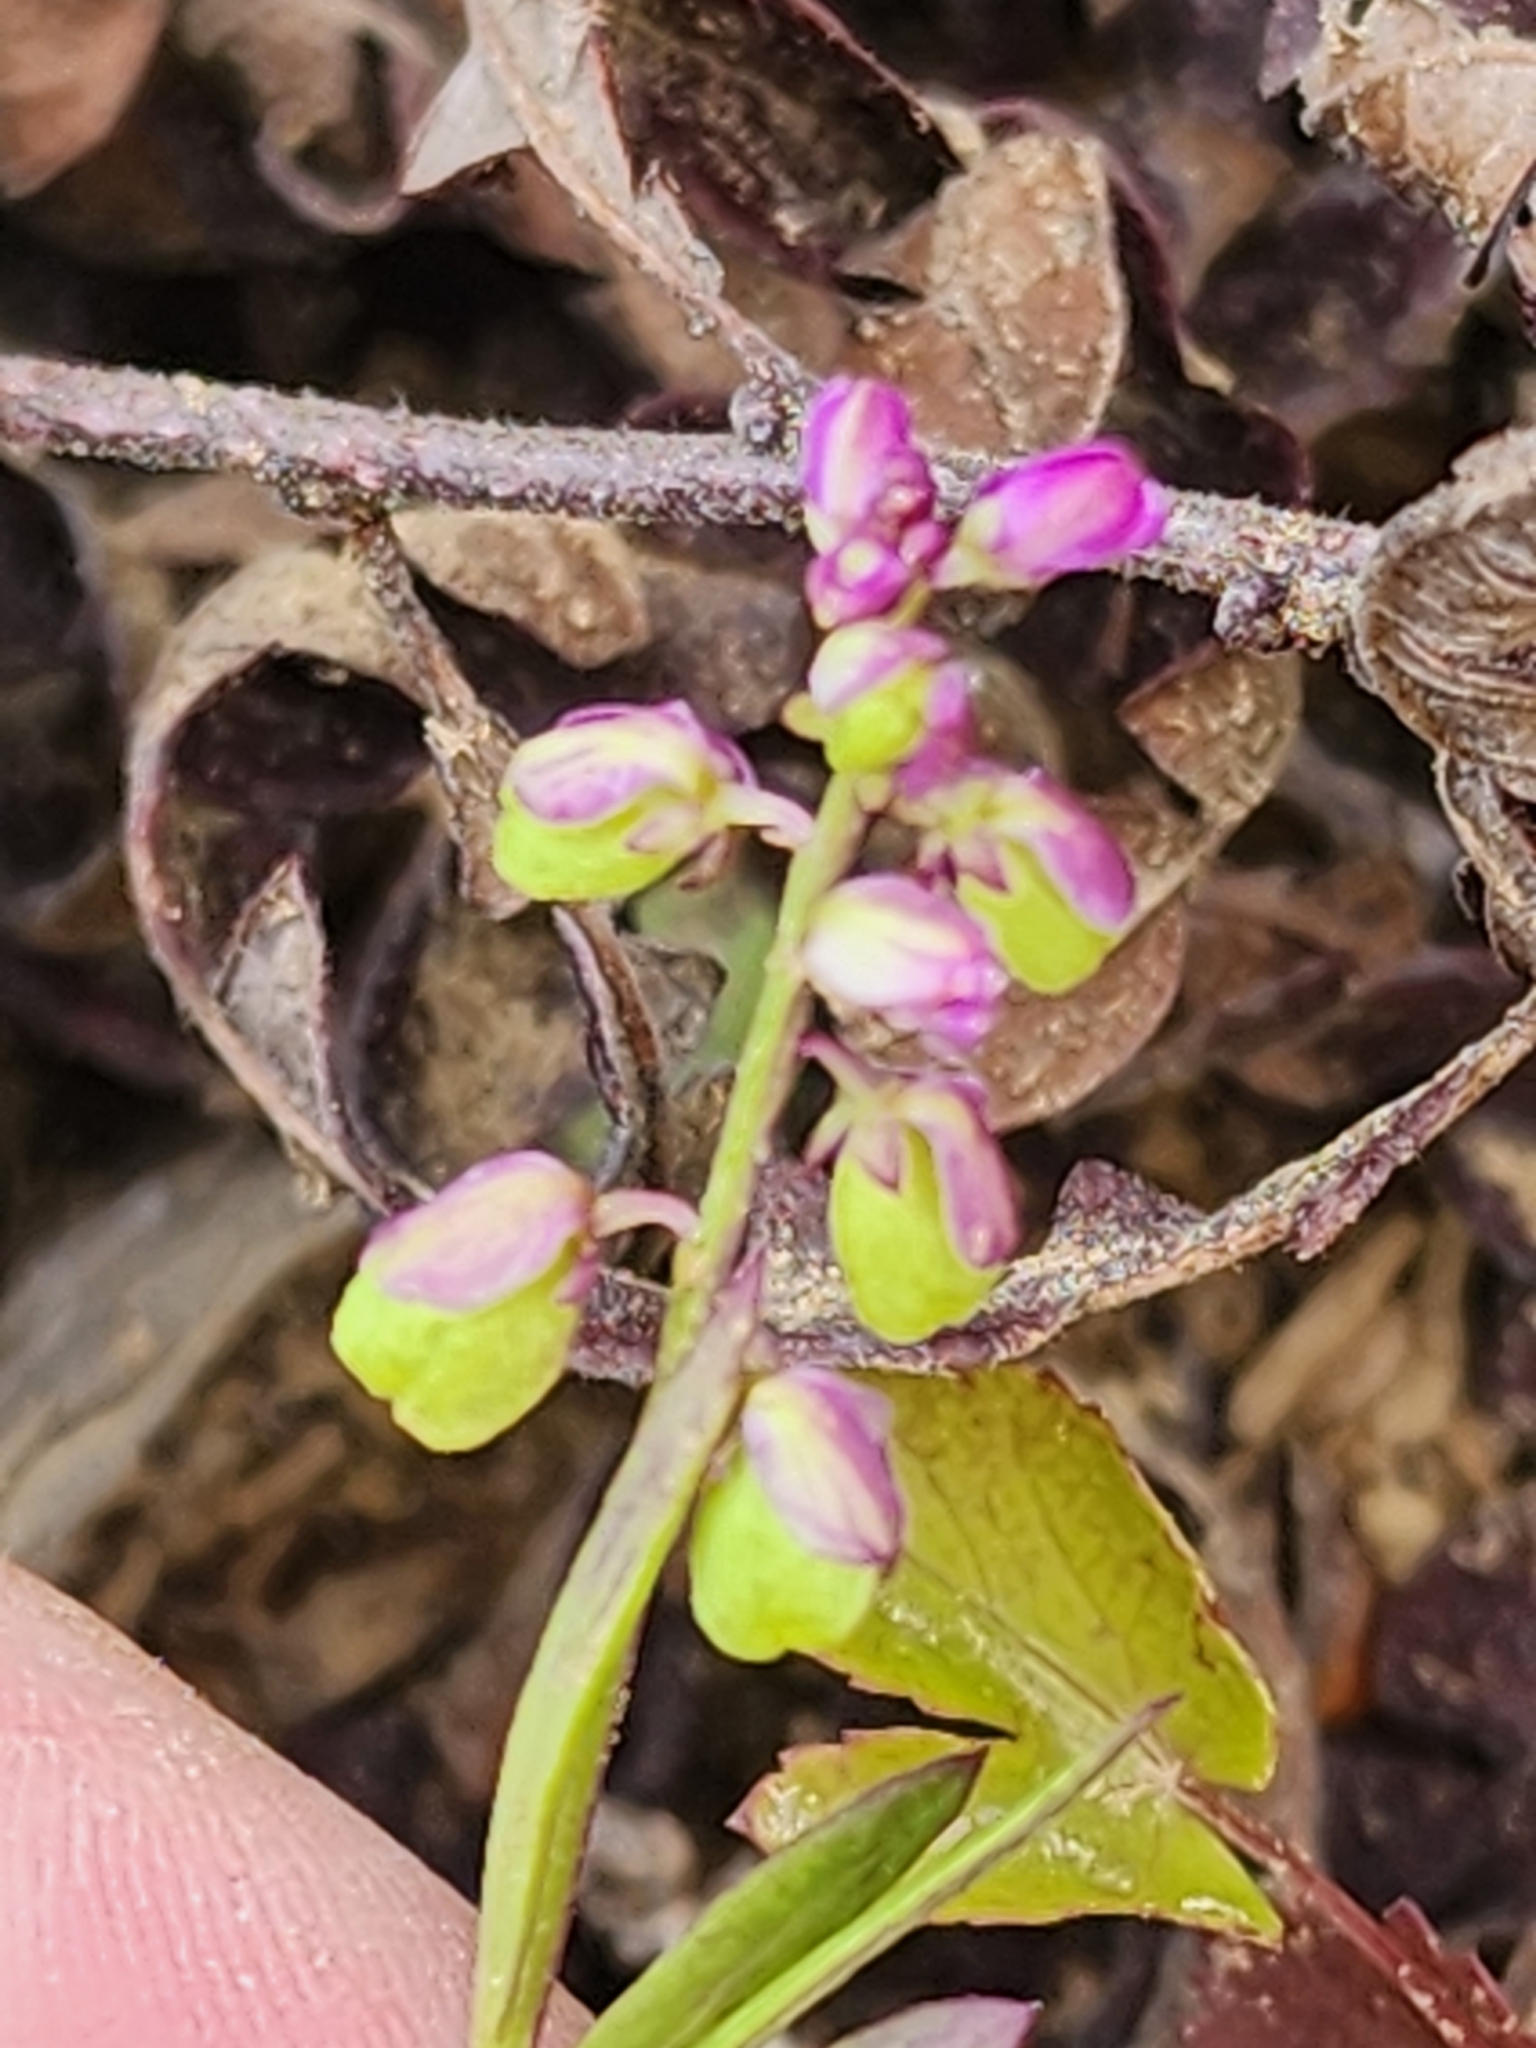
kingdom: Plantae
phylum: Tracheophyta
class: Magnoliopsida
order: Fabales
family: Polygalaceae
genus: Polygala
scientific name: Polygala polygama
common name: Bitter milkwort
